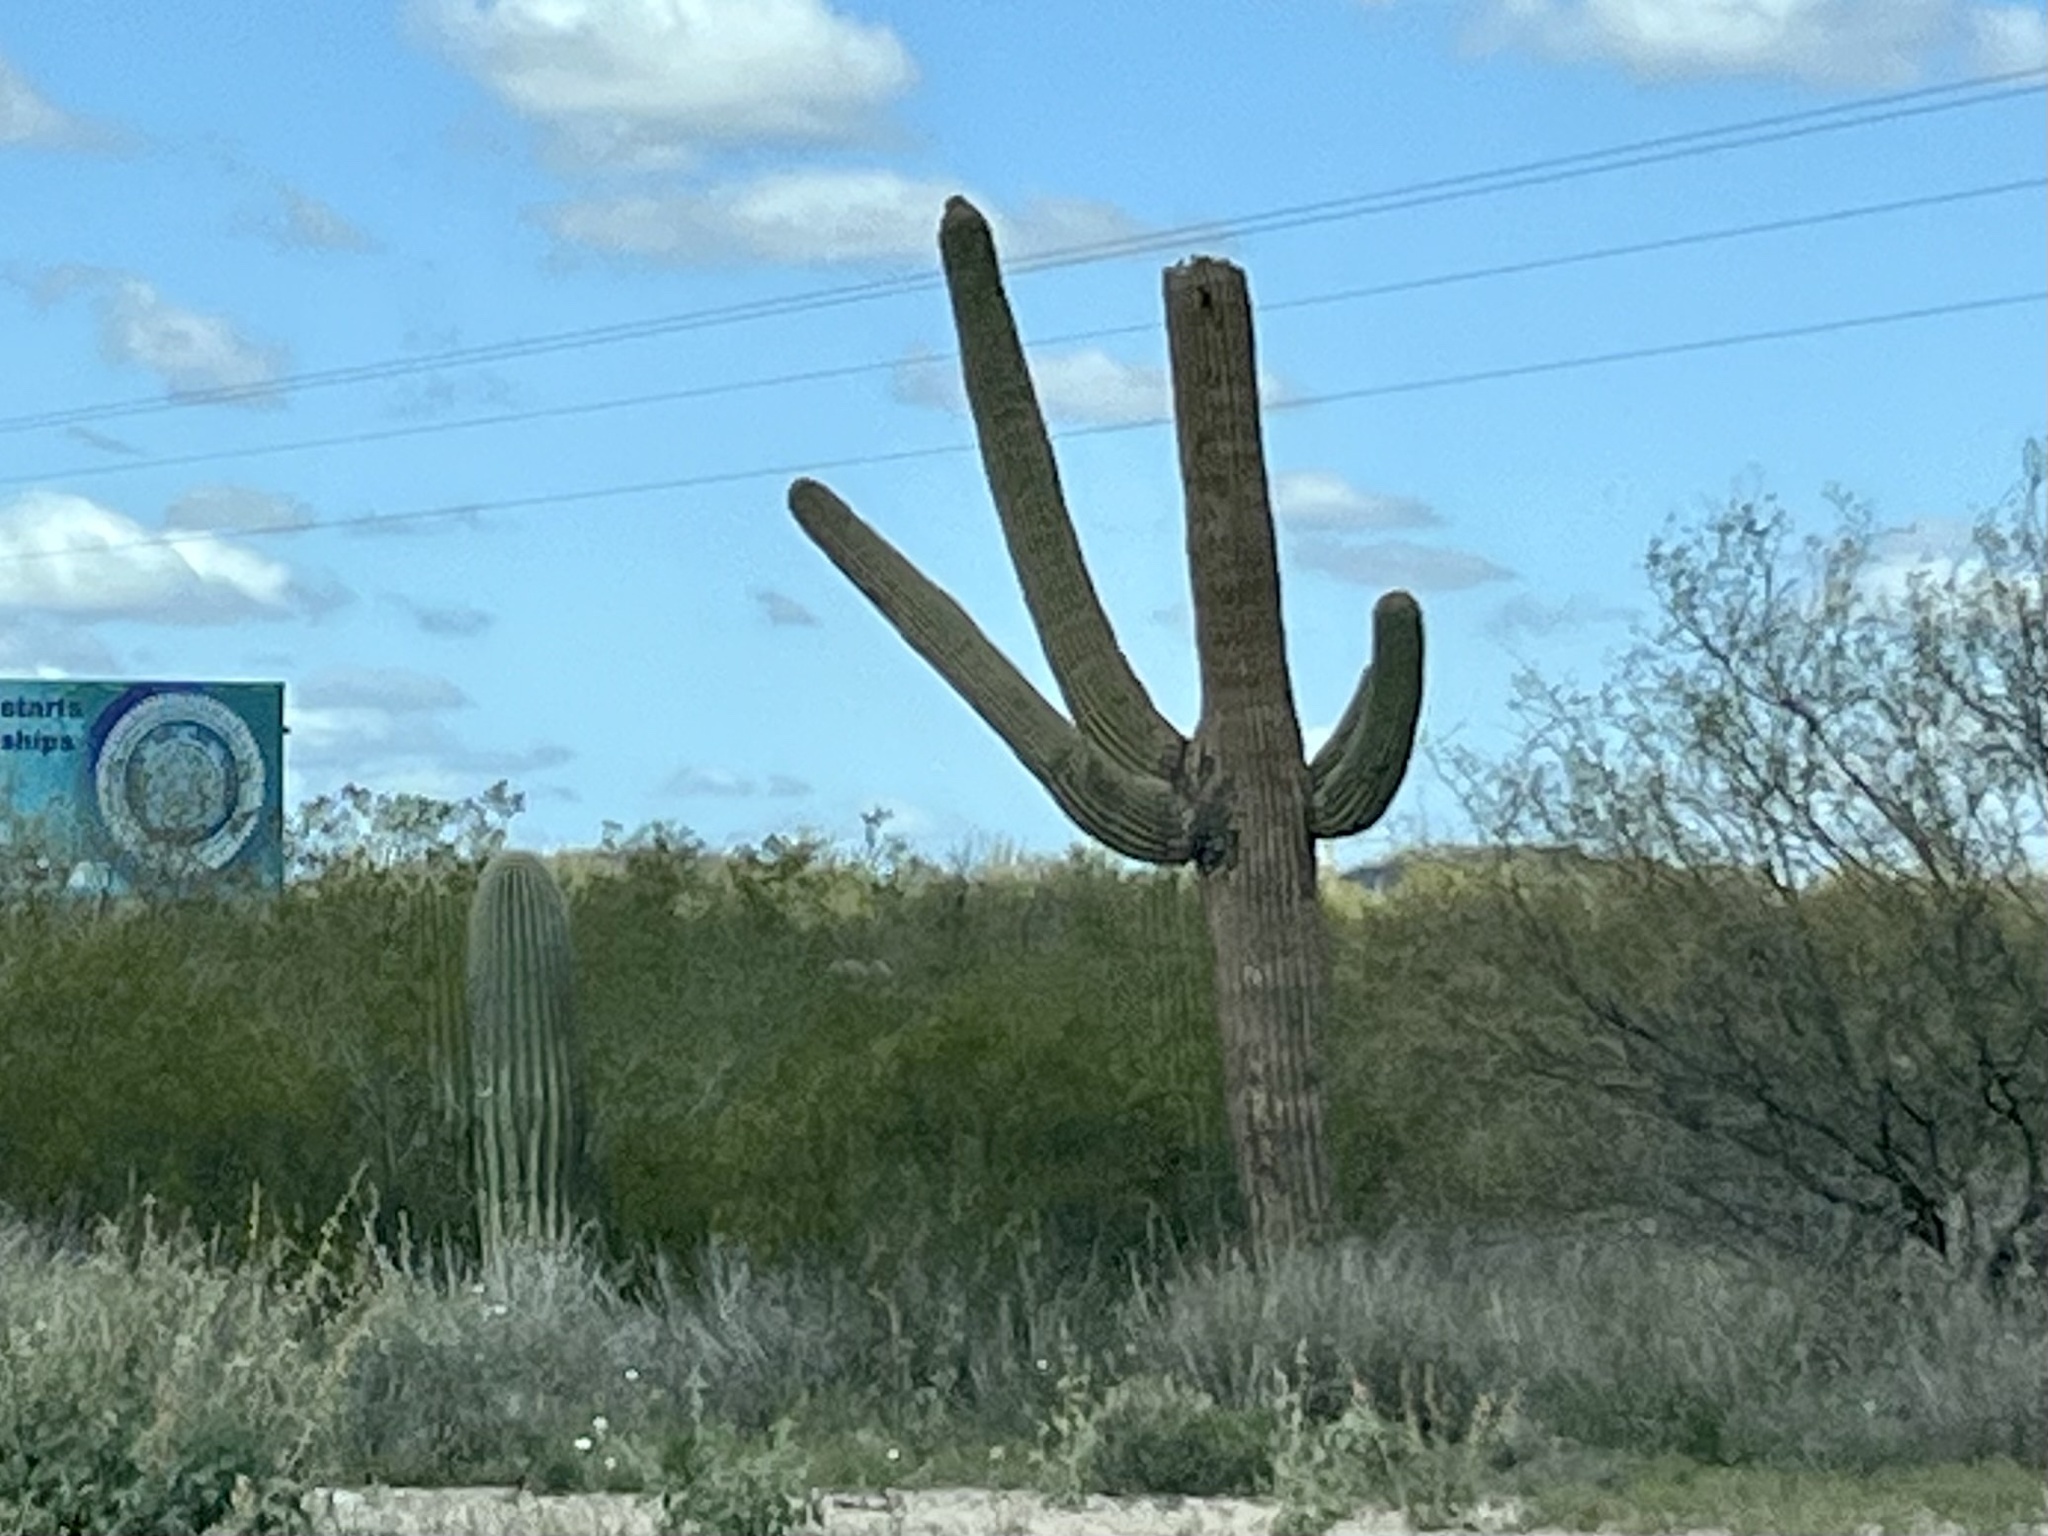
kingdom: Plantae
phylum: Tracheophyta
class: Magnoliopsida
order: Caryophyllales
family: Cactaceae
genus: Carnegiea
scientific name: Carnegiea gigantea
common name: Saguaro
